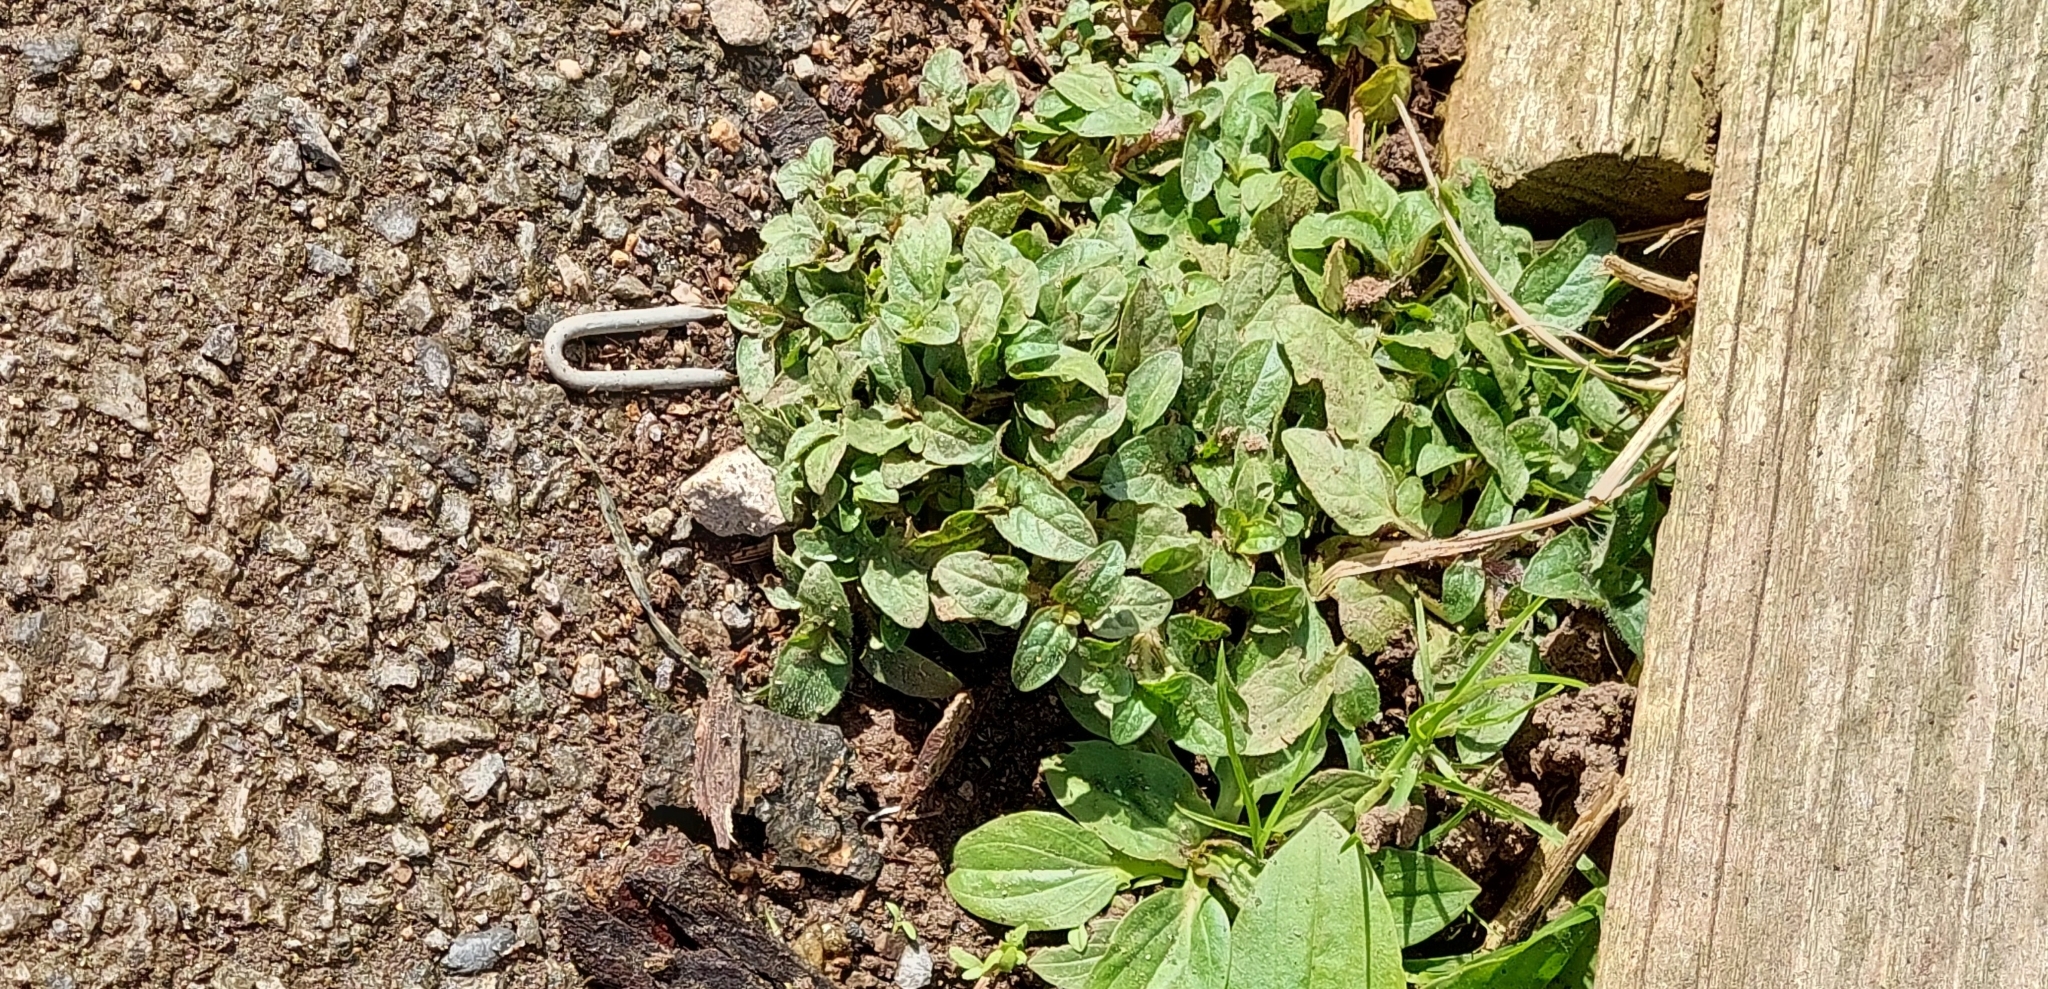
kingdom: Plantae
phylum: Tracheophyta
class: Magnoliopsida
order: Lamiales
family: Lamiaceae
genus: Prunella
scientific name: Prunella vulgaris
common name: Heal-all
